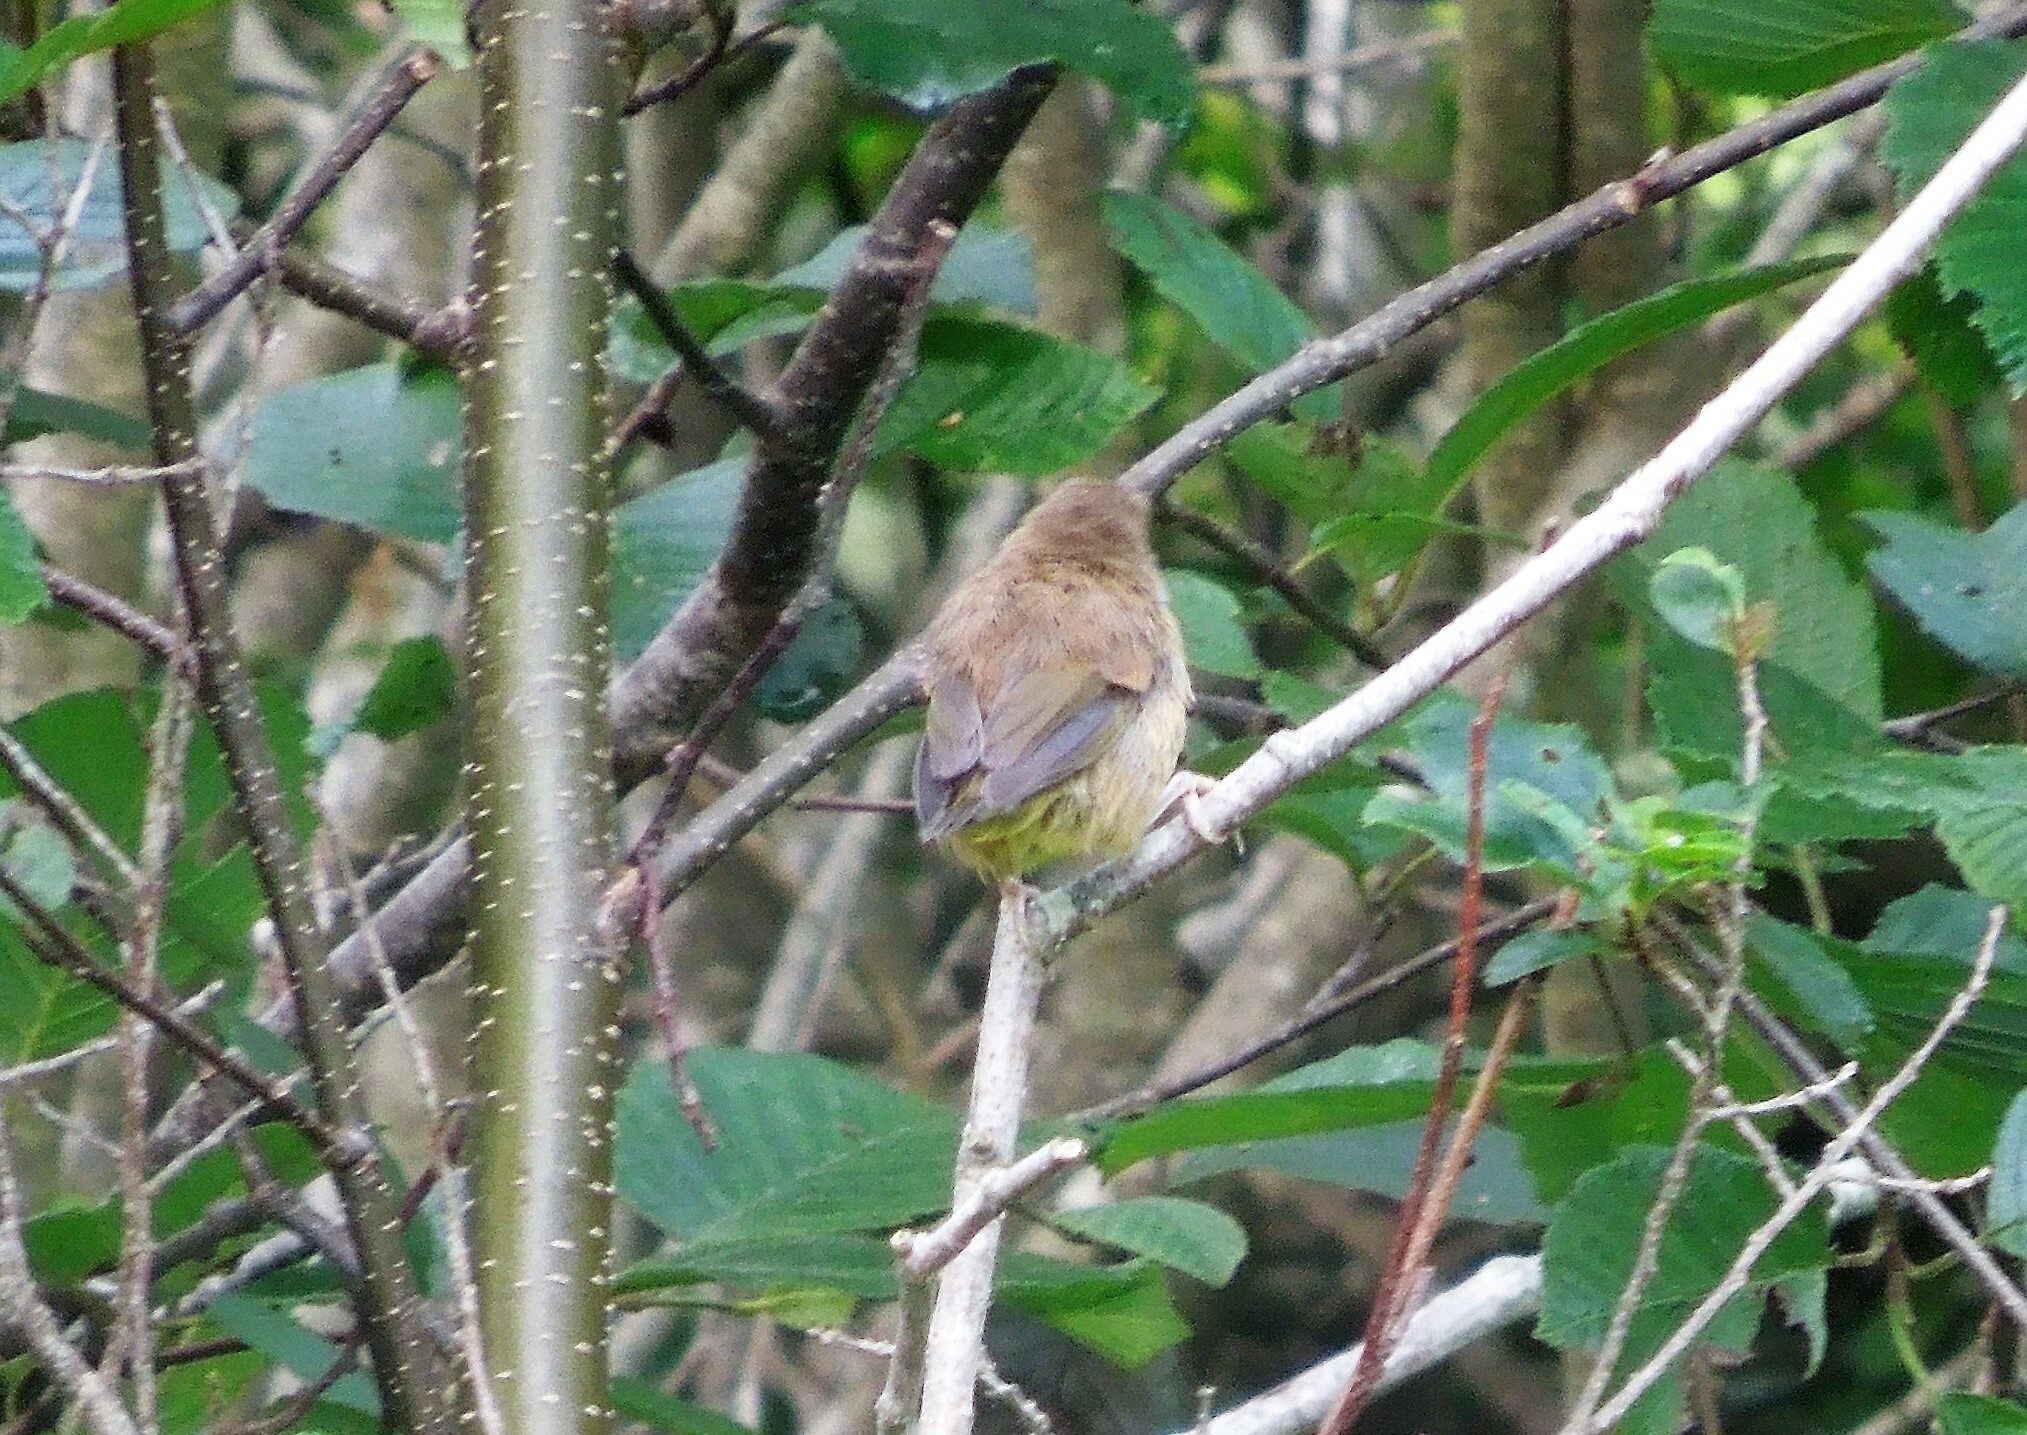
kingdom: Animalia
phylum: Chordata
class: Aves
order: Passeriformes
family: Parulidae
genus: Geothlypis
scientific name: Geothlypis
